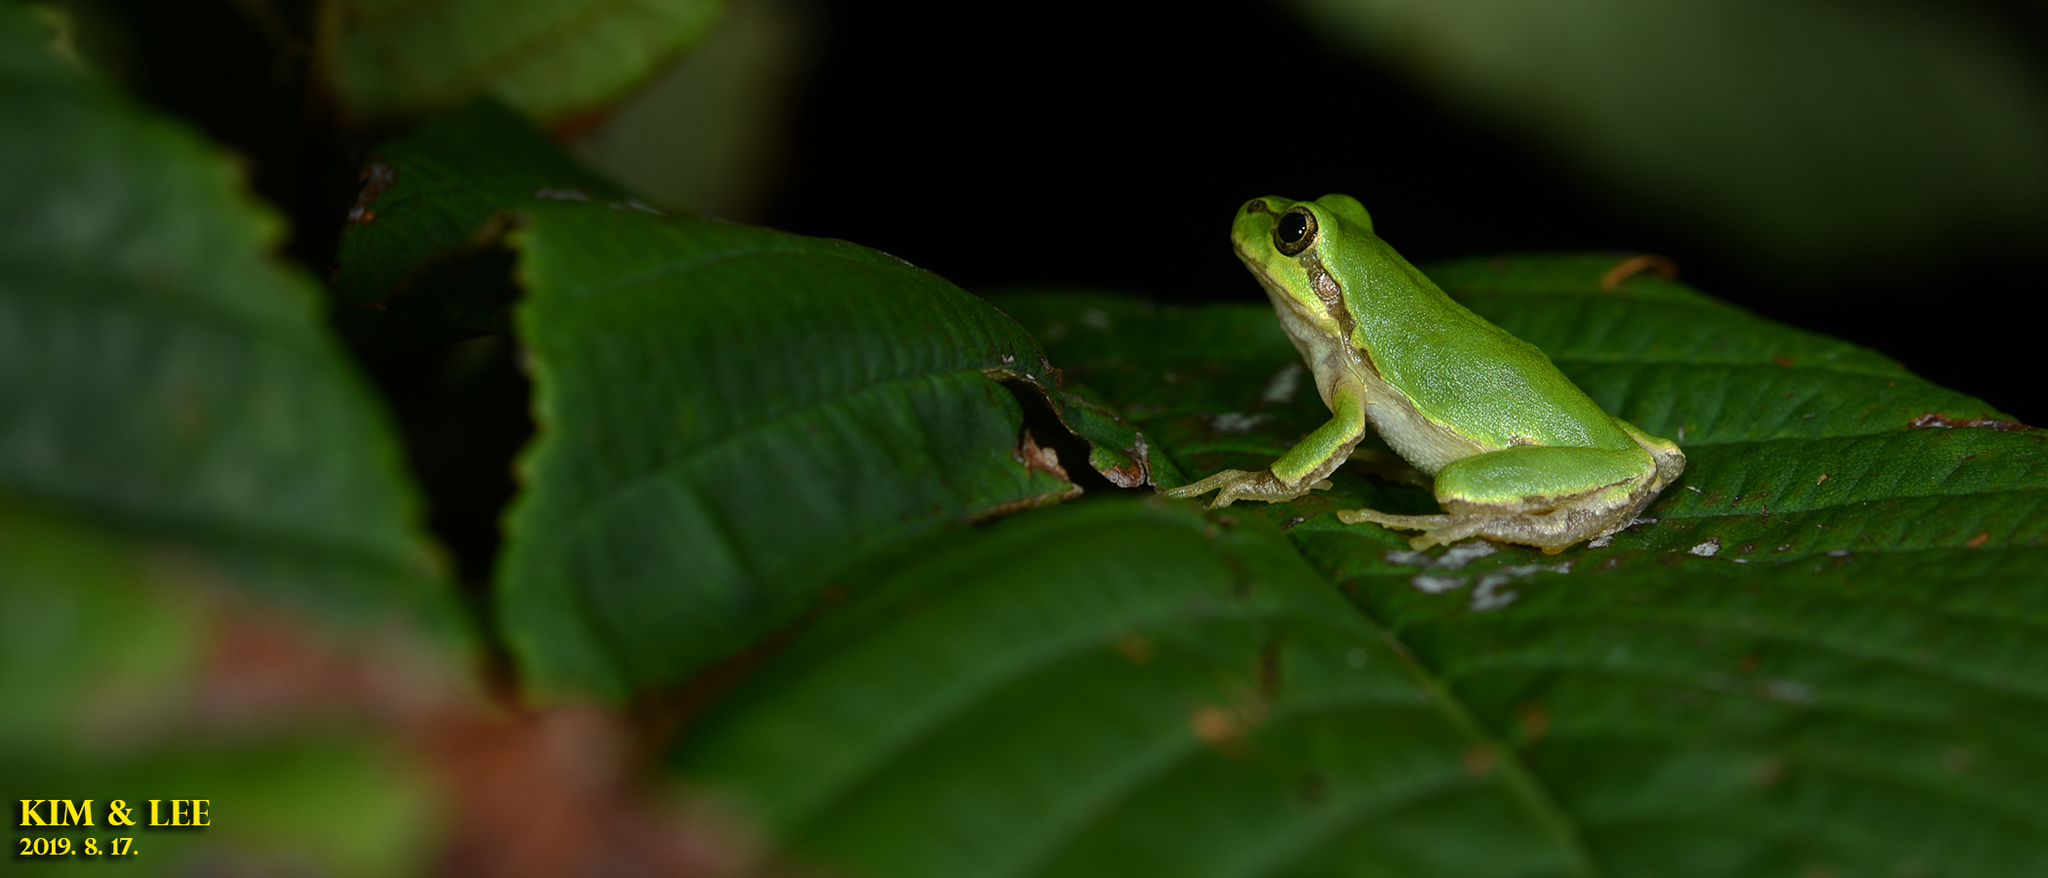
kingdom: Animalia
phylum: Chordata
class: Amphibia
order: Anura
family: Hylidae
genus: Dryophytes
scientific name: Dryophytes japonicus
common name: Japanese treefrog
